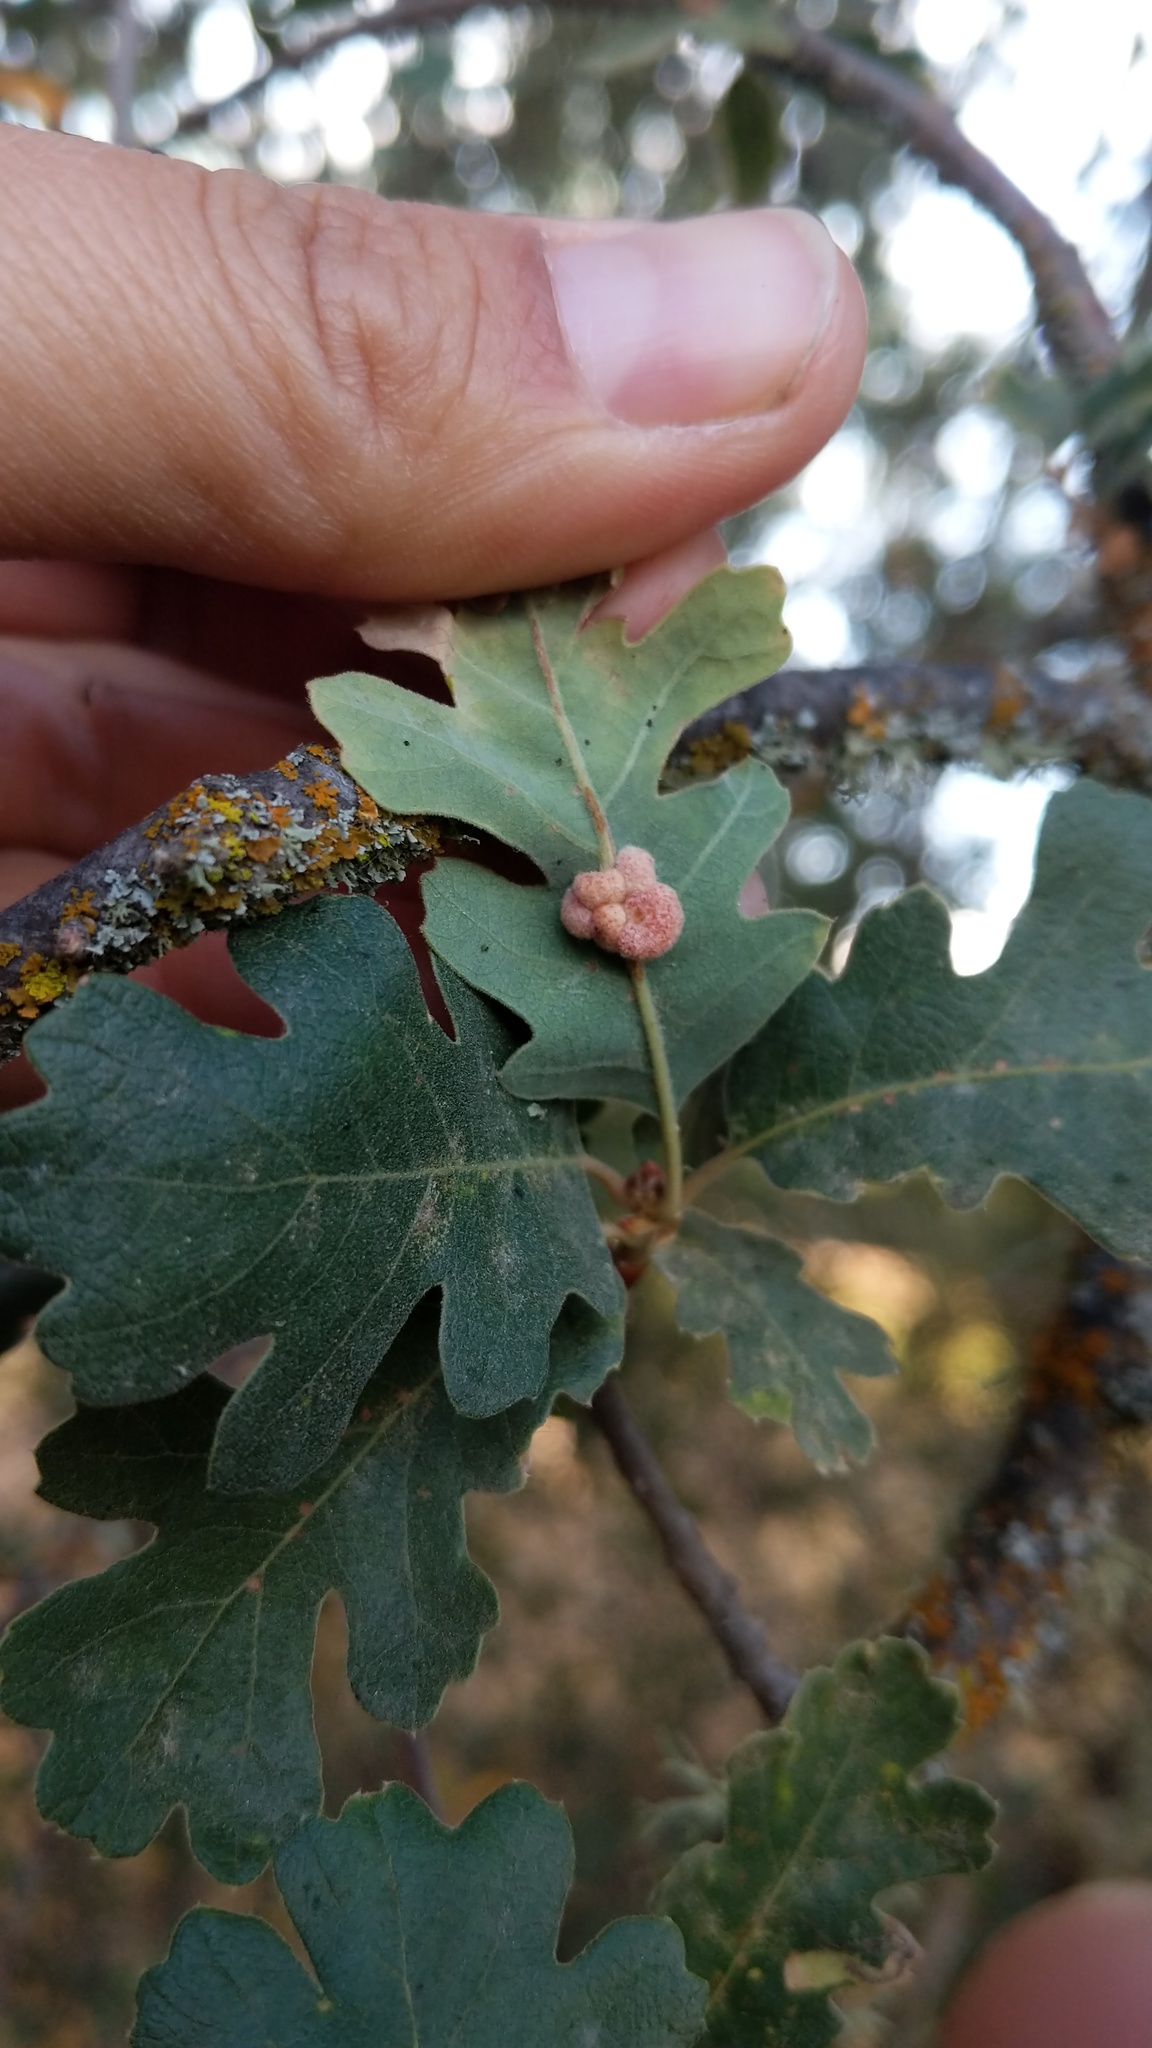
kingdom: Animalia
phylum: Arthropoda
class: Insecta
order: Hymenoptera
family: Cynipidae
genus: Andricus
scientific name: Andricus
